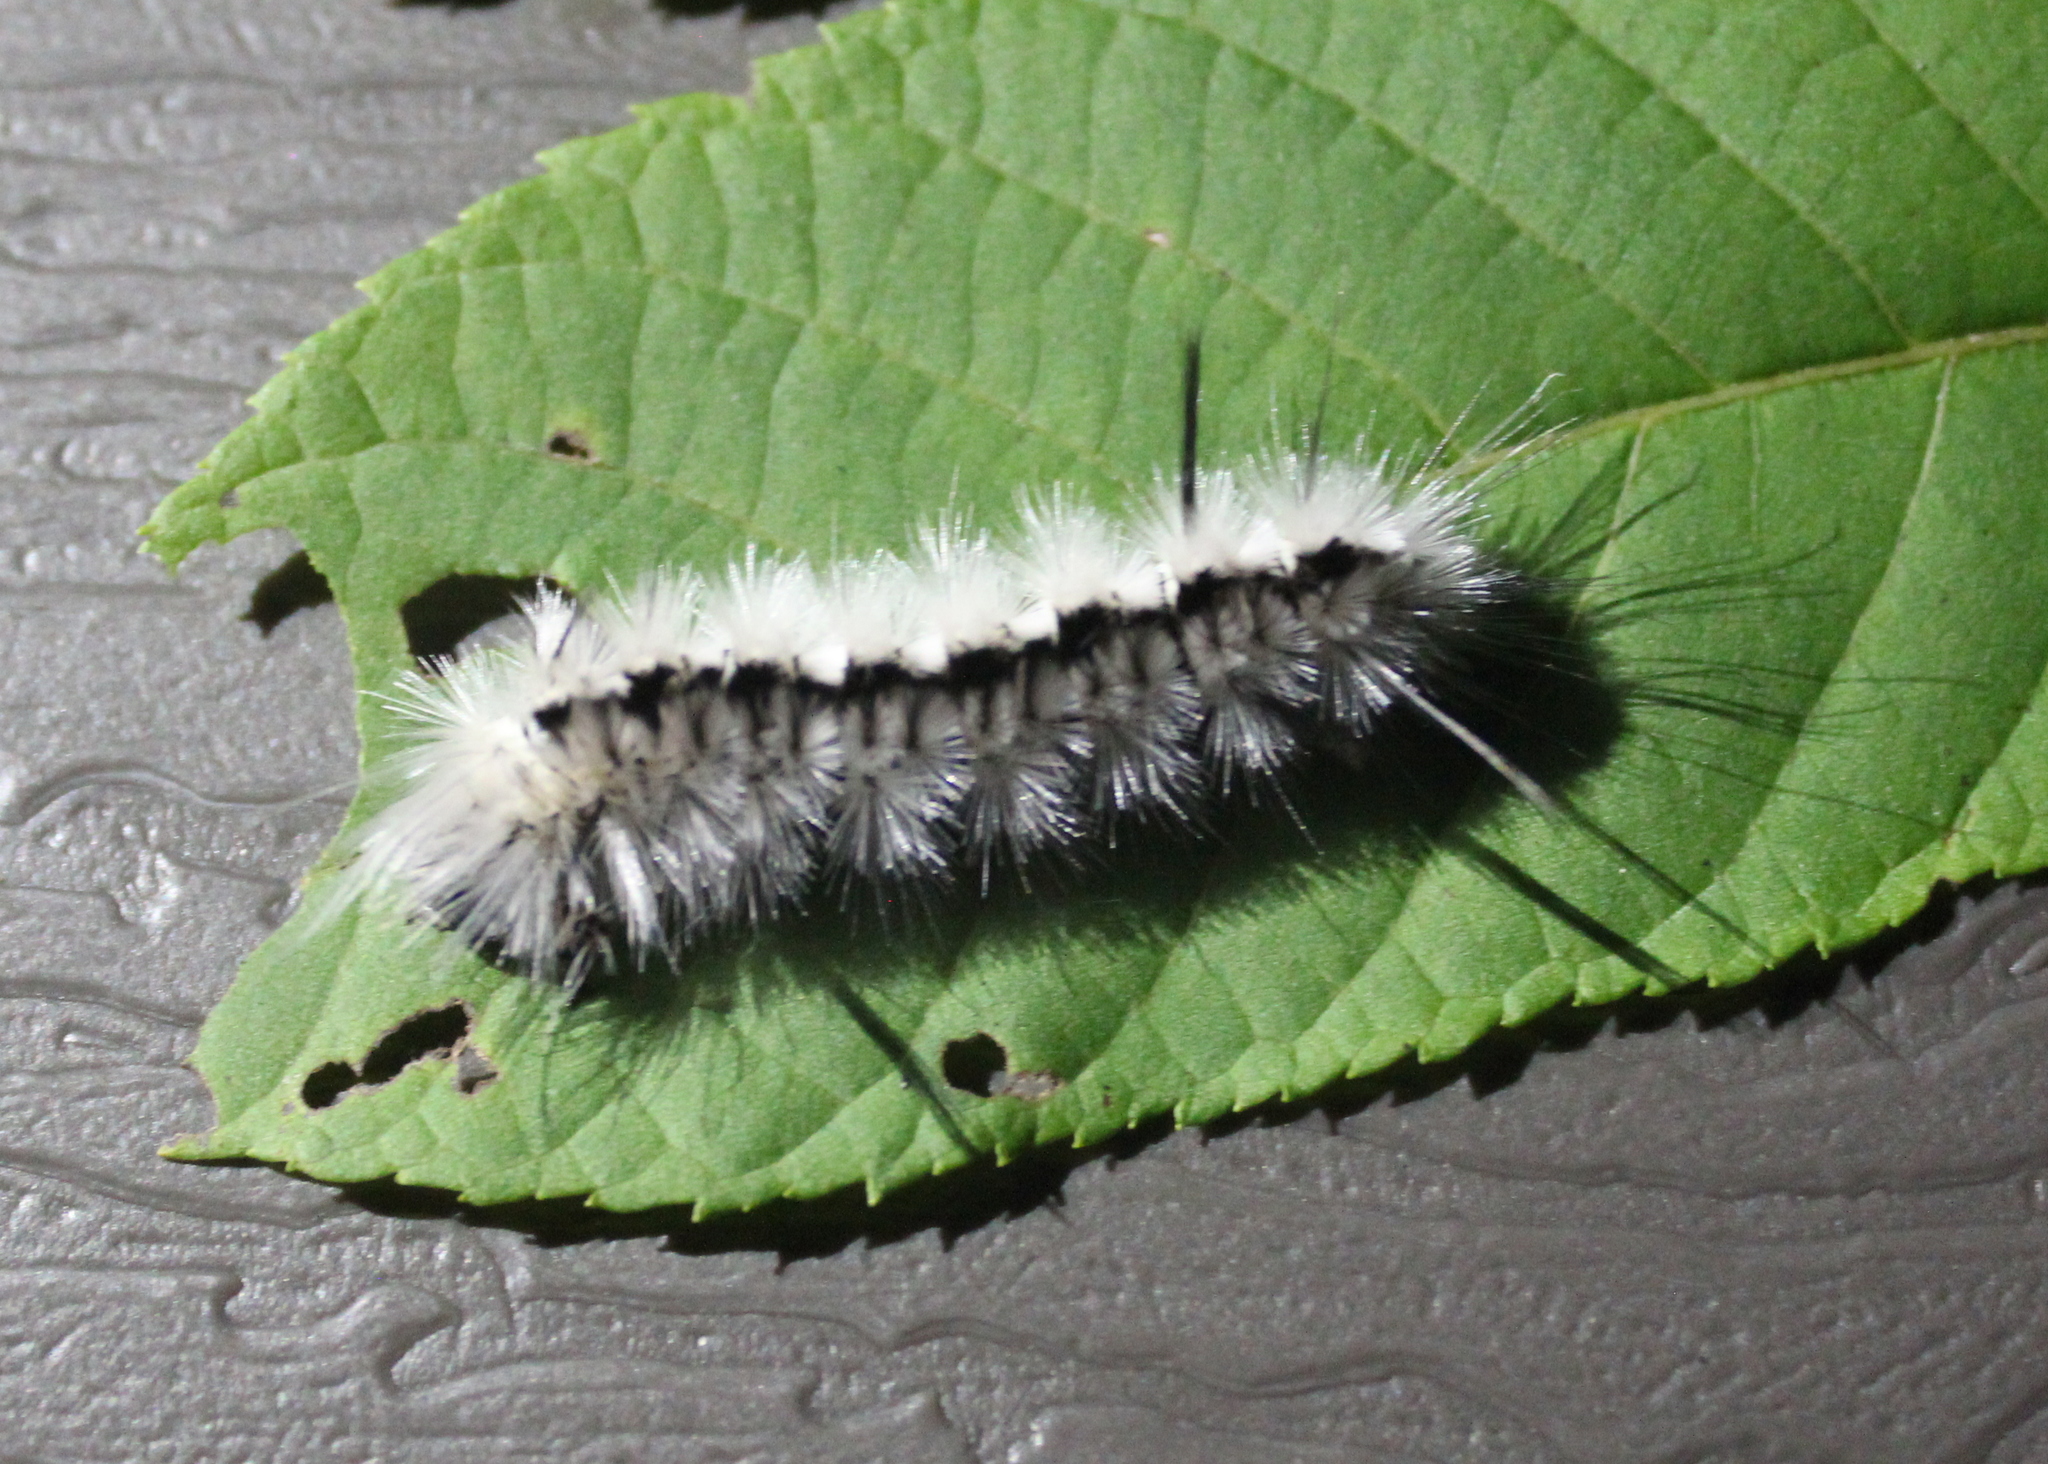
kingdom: Animalia
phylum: Arthropoda
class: Insecta
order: Lepidoptera
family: Erebidae
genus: Lophocampa
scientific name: Lophocampa caryae
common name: Hickory tussock moth
